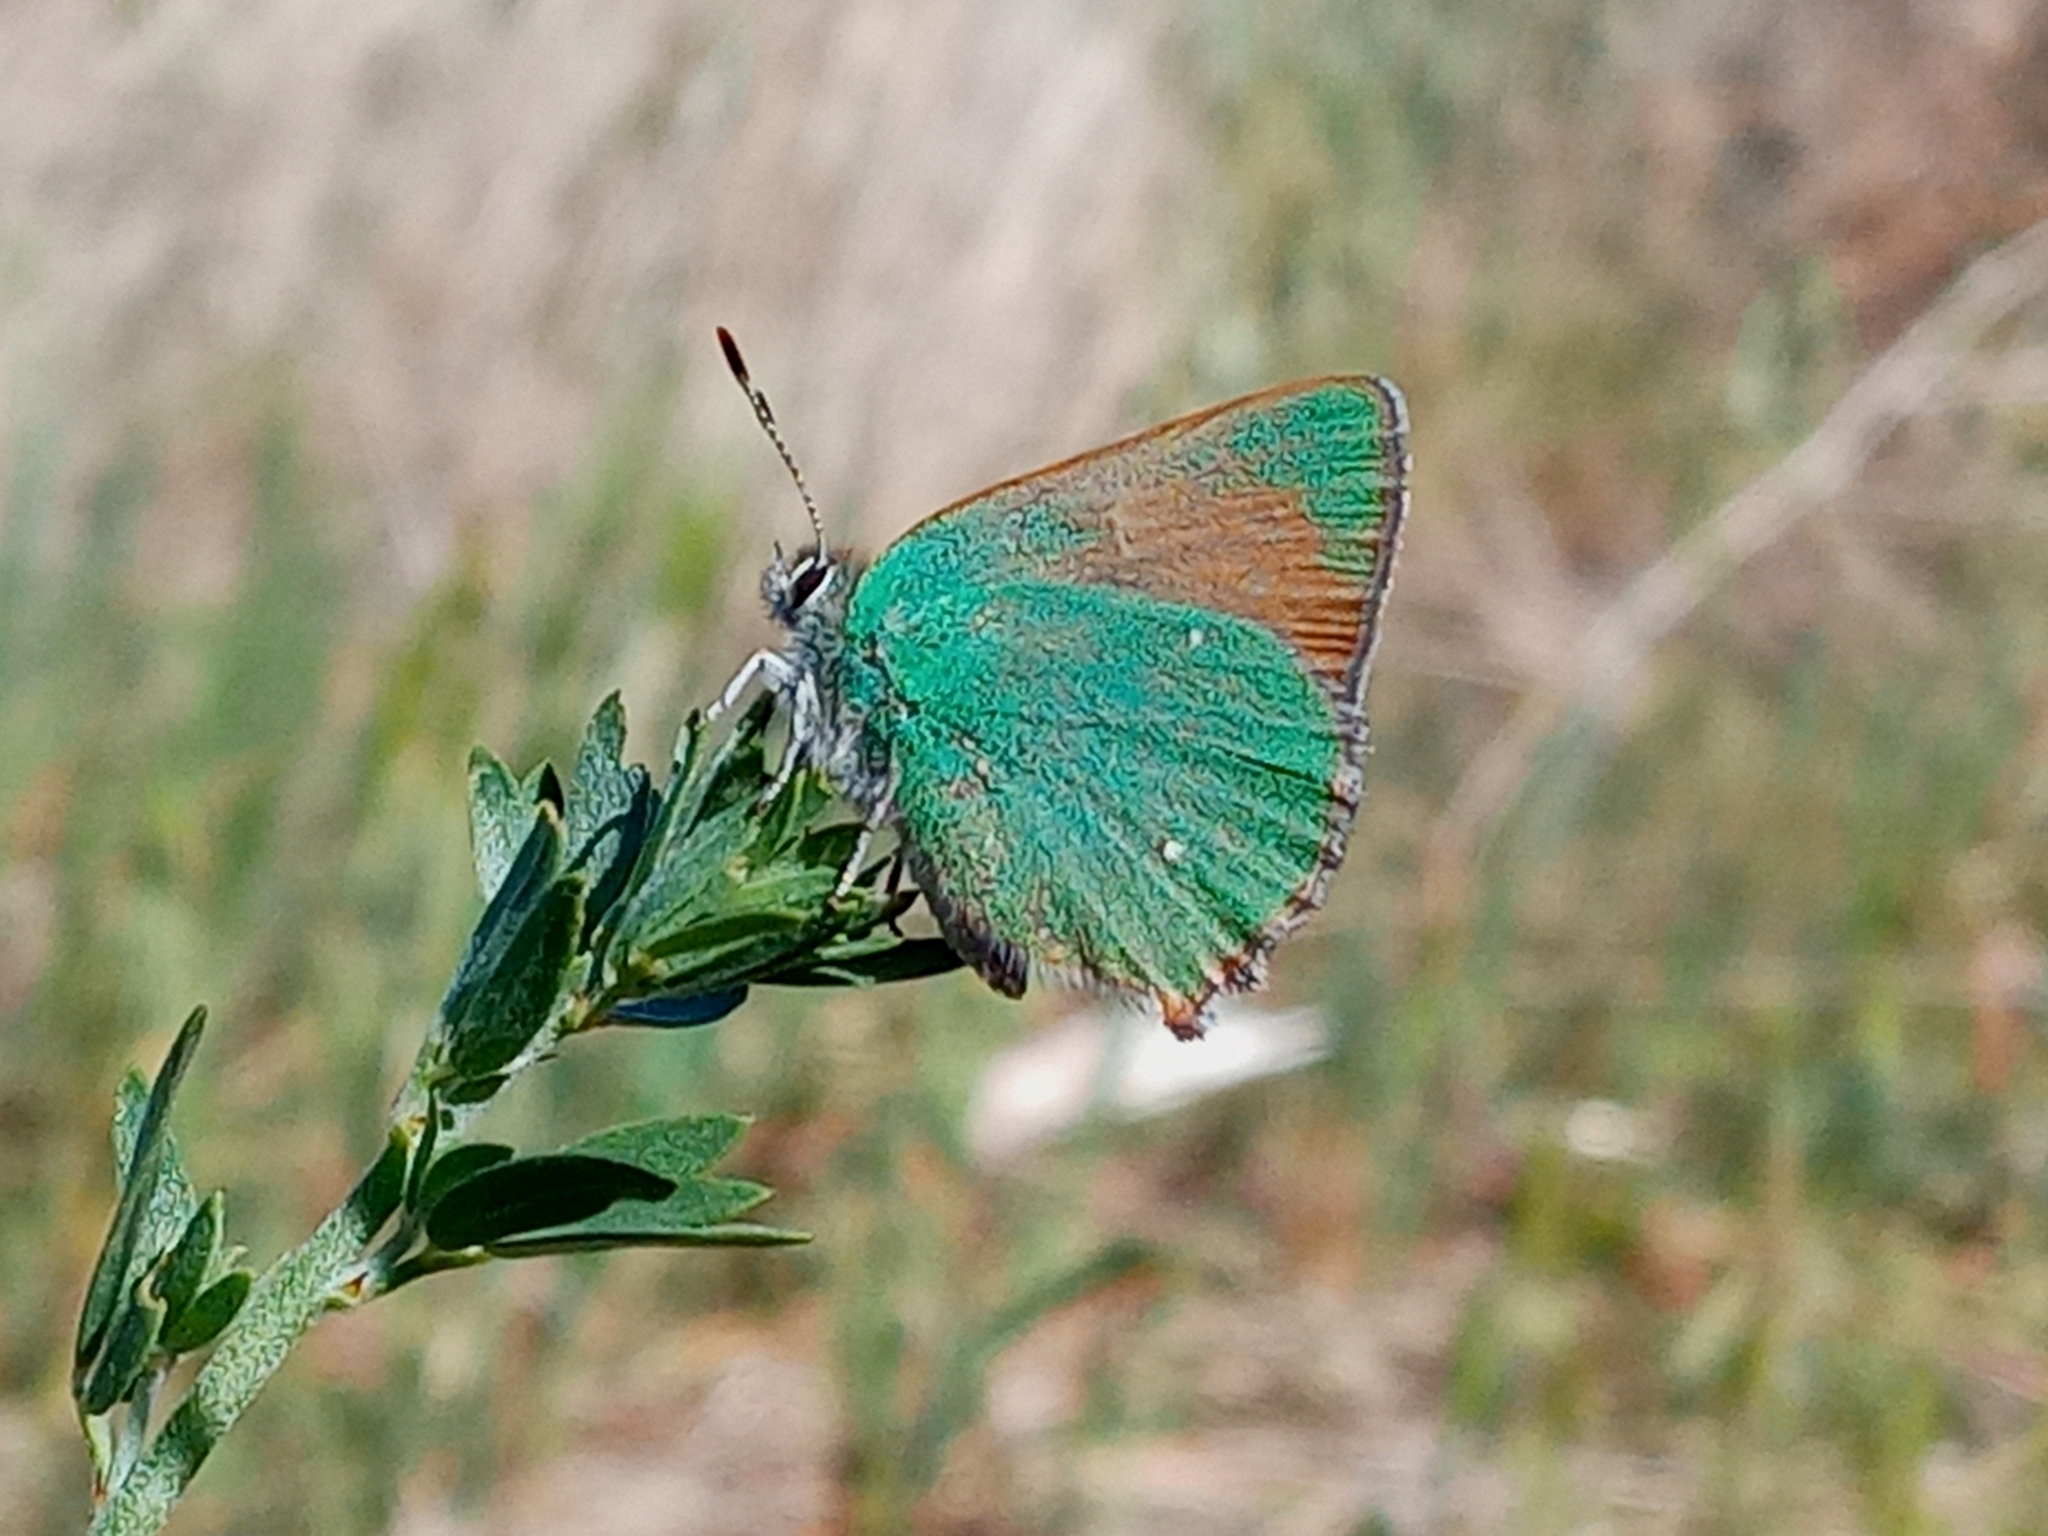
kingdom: Animalia
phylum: Arthropoda
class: Insecta
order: Lepidoptera
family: Lycaenidae
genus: Callophrys
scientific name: Callophrys dumetorum
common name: Bramble hairstreak
